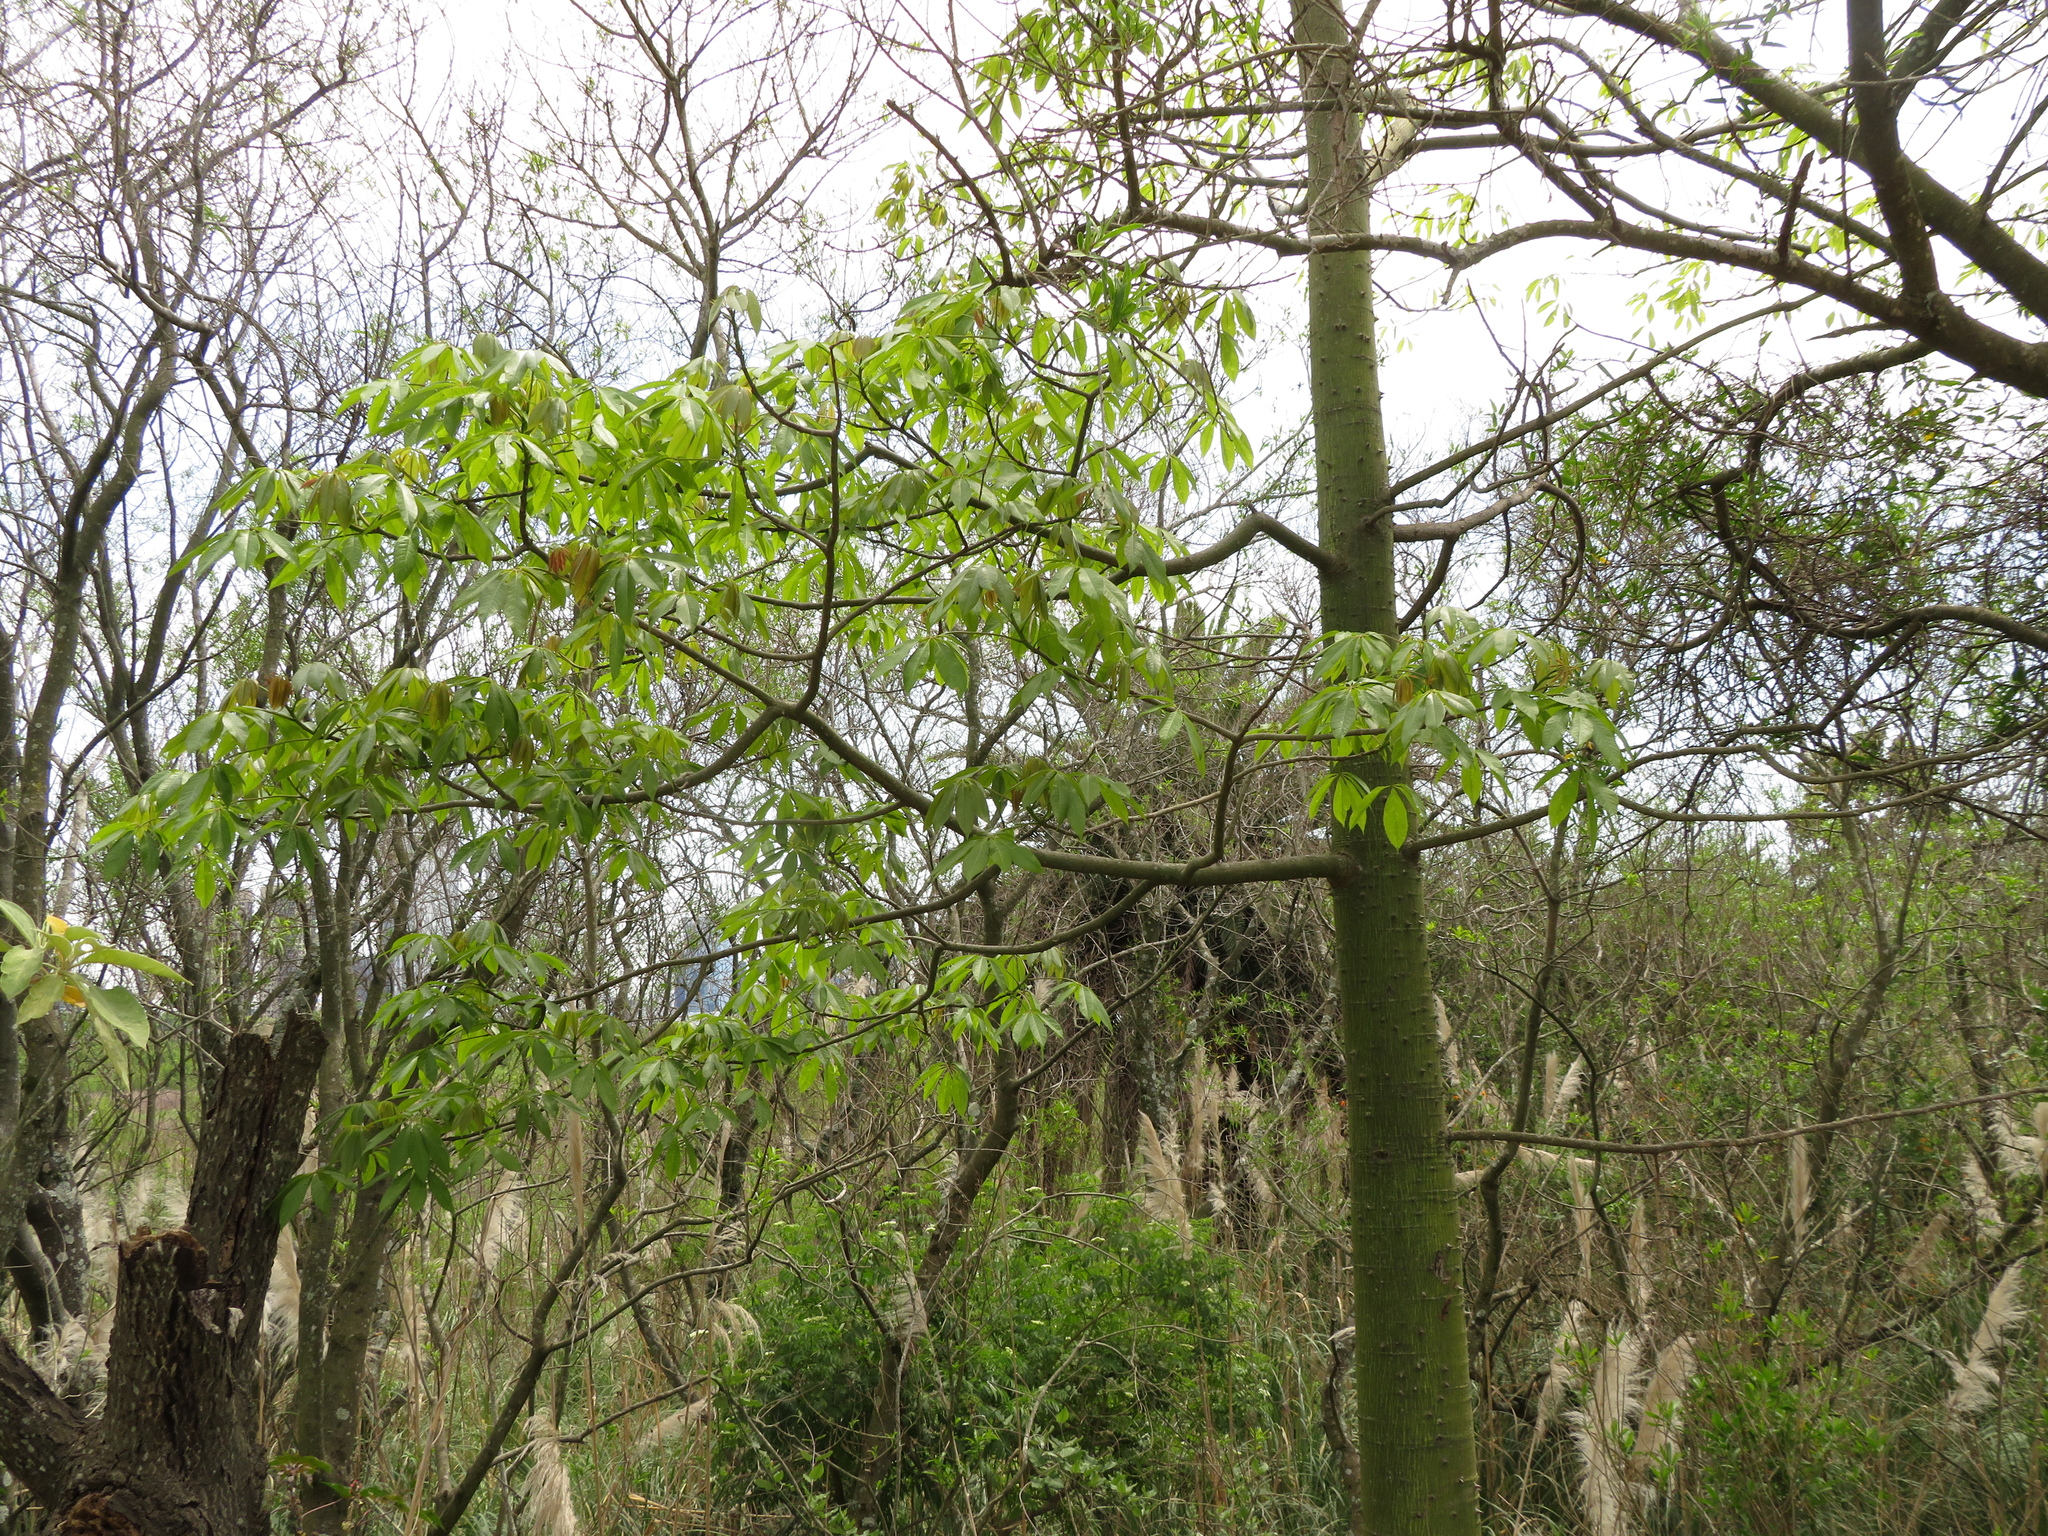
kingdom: Plantae
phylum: Tracheophyta
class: Magnoliopsida
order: Malvales
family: Malvaceae
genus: Ceiba
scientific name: Ceiba speciosa
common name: Silk-floss tree
